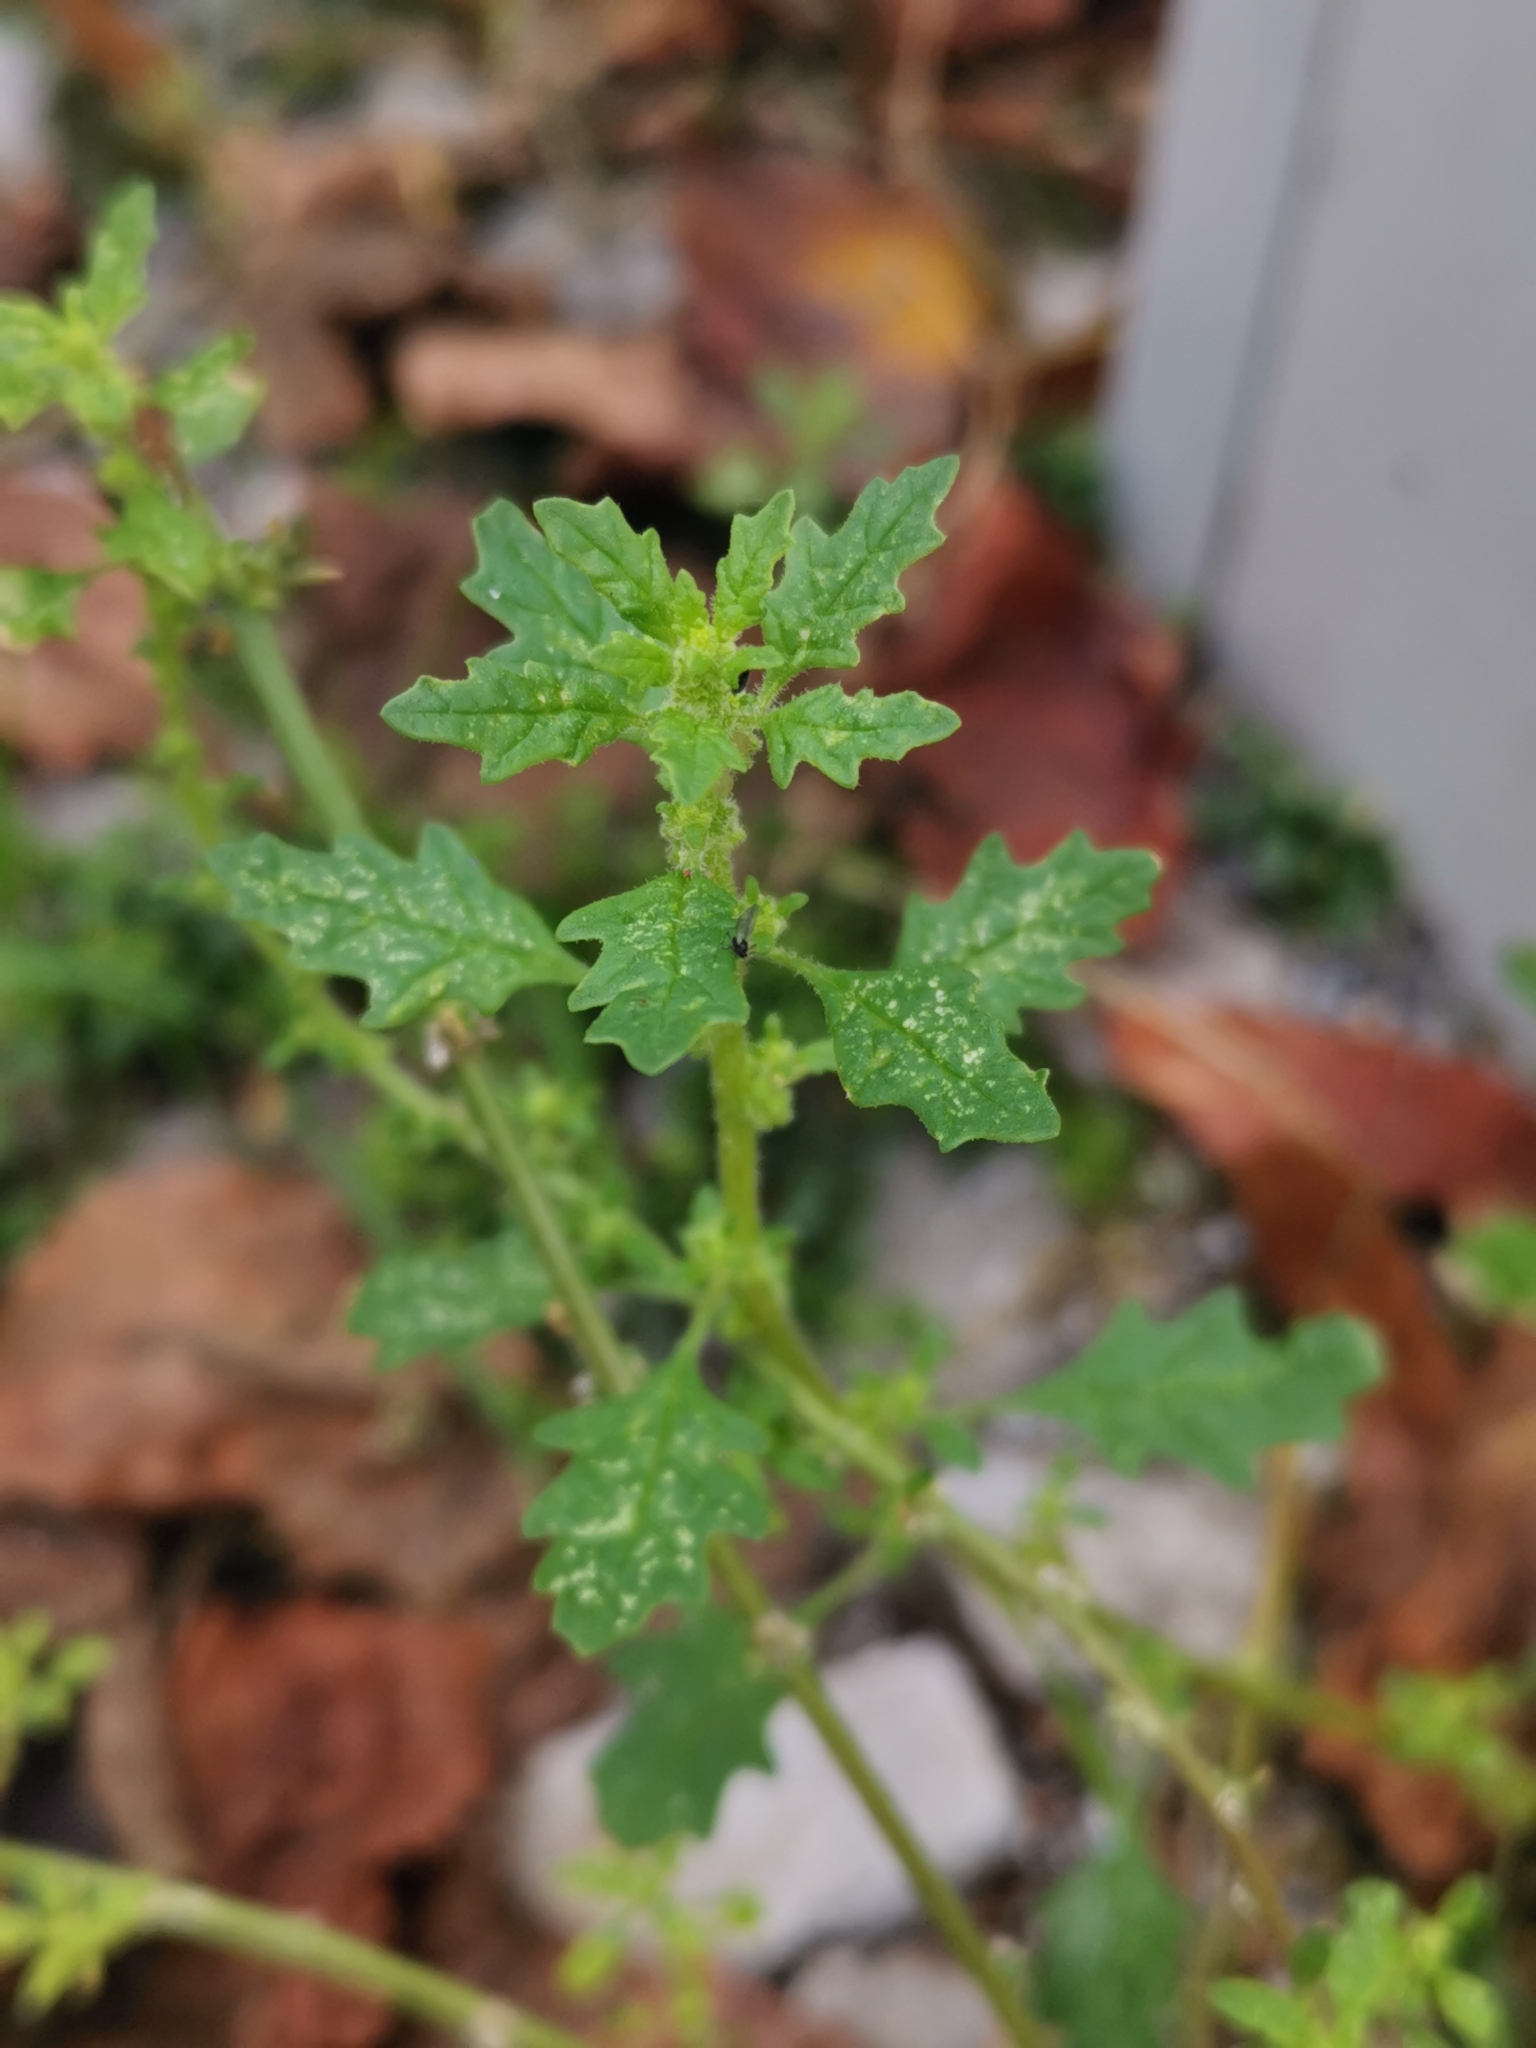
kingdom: Plantae
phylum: Tracheophyta
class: Magnoliopsida
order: Caryophyllales
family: Amaranthaceae
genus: Dysphania
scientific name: Dysphania pumilio
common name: Clammy goosefoot
